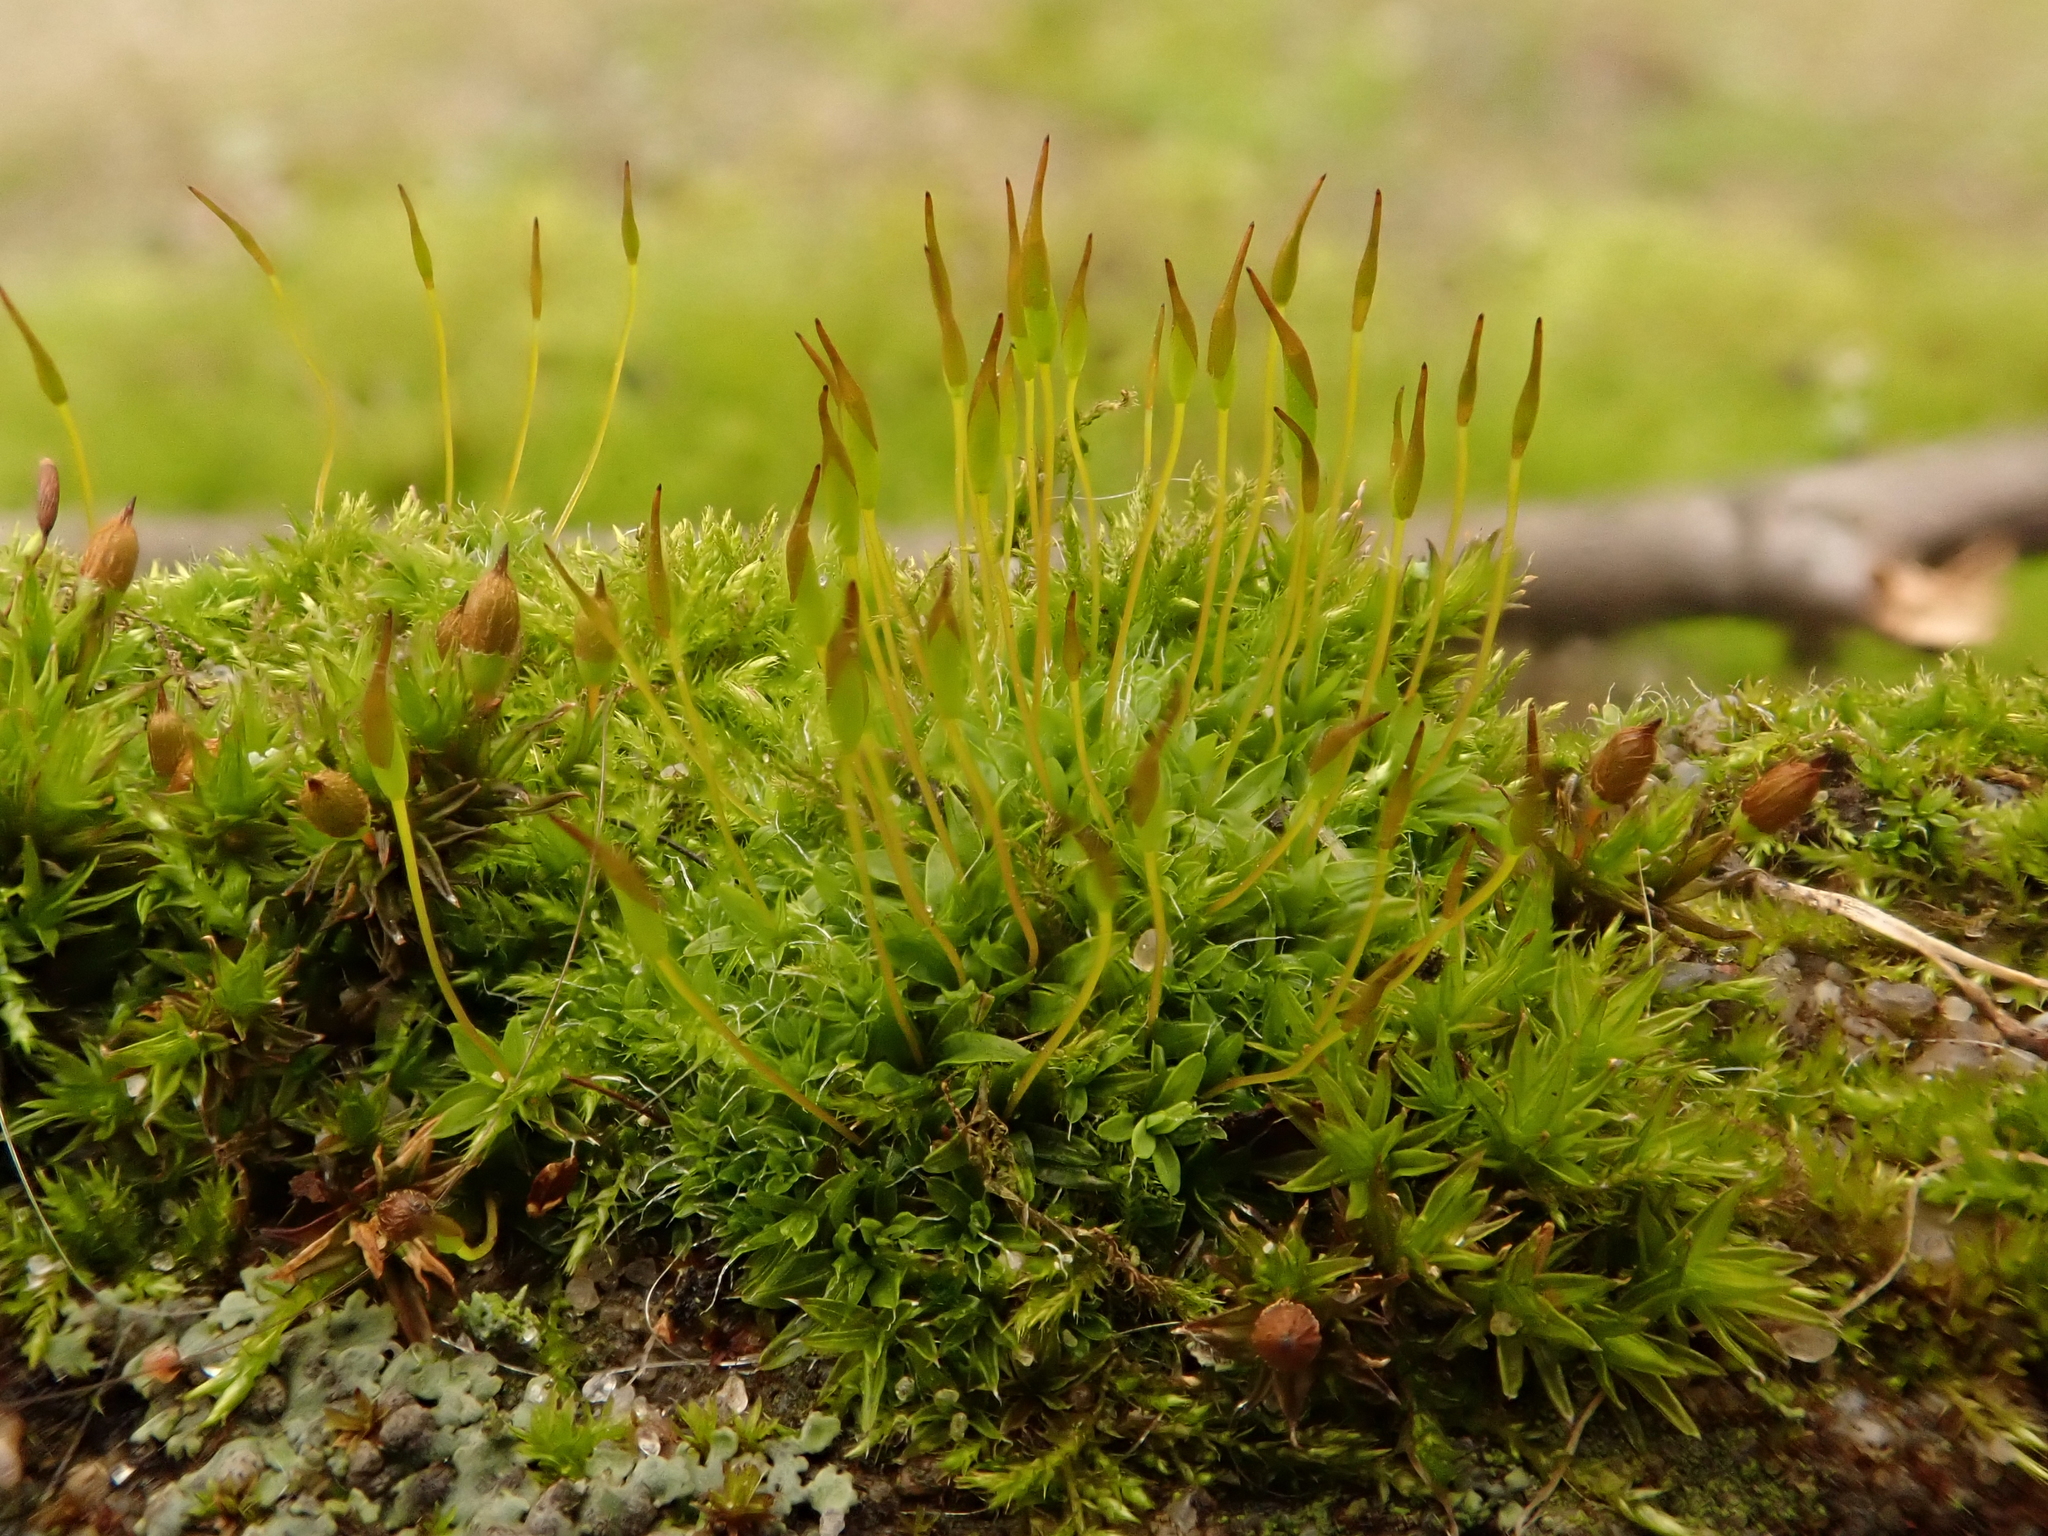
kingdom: Plantae
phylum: Bryophyta
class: Bryopsida
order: Pottiales
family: Pottiaceae
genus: Tortula
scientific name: Tortula muralis
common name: Wall screw-moss
